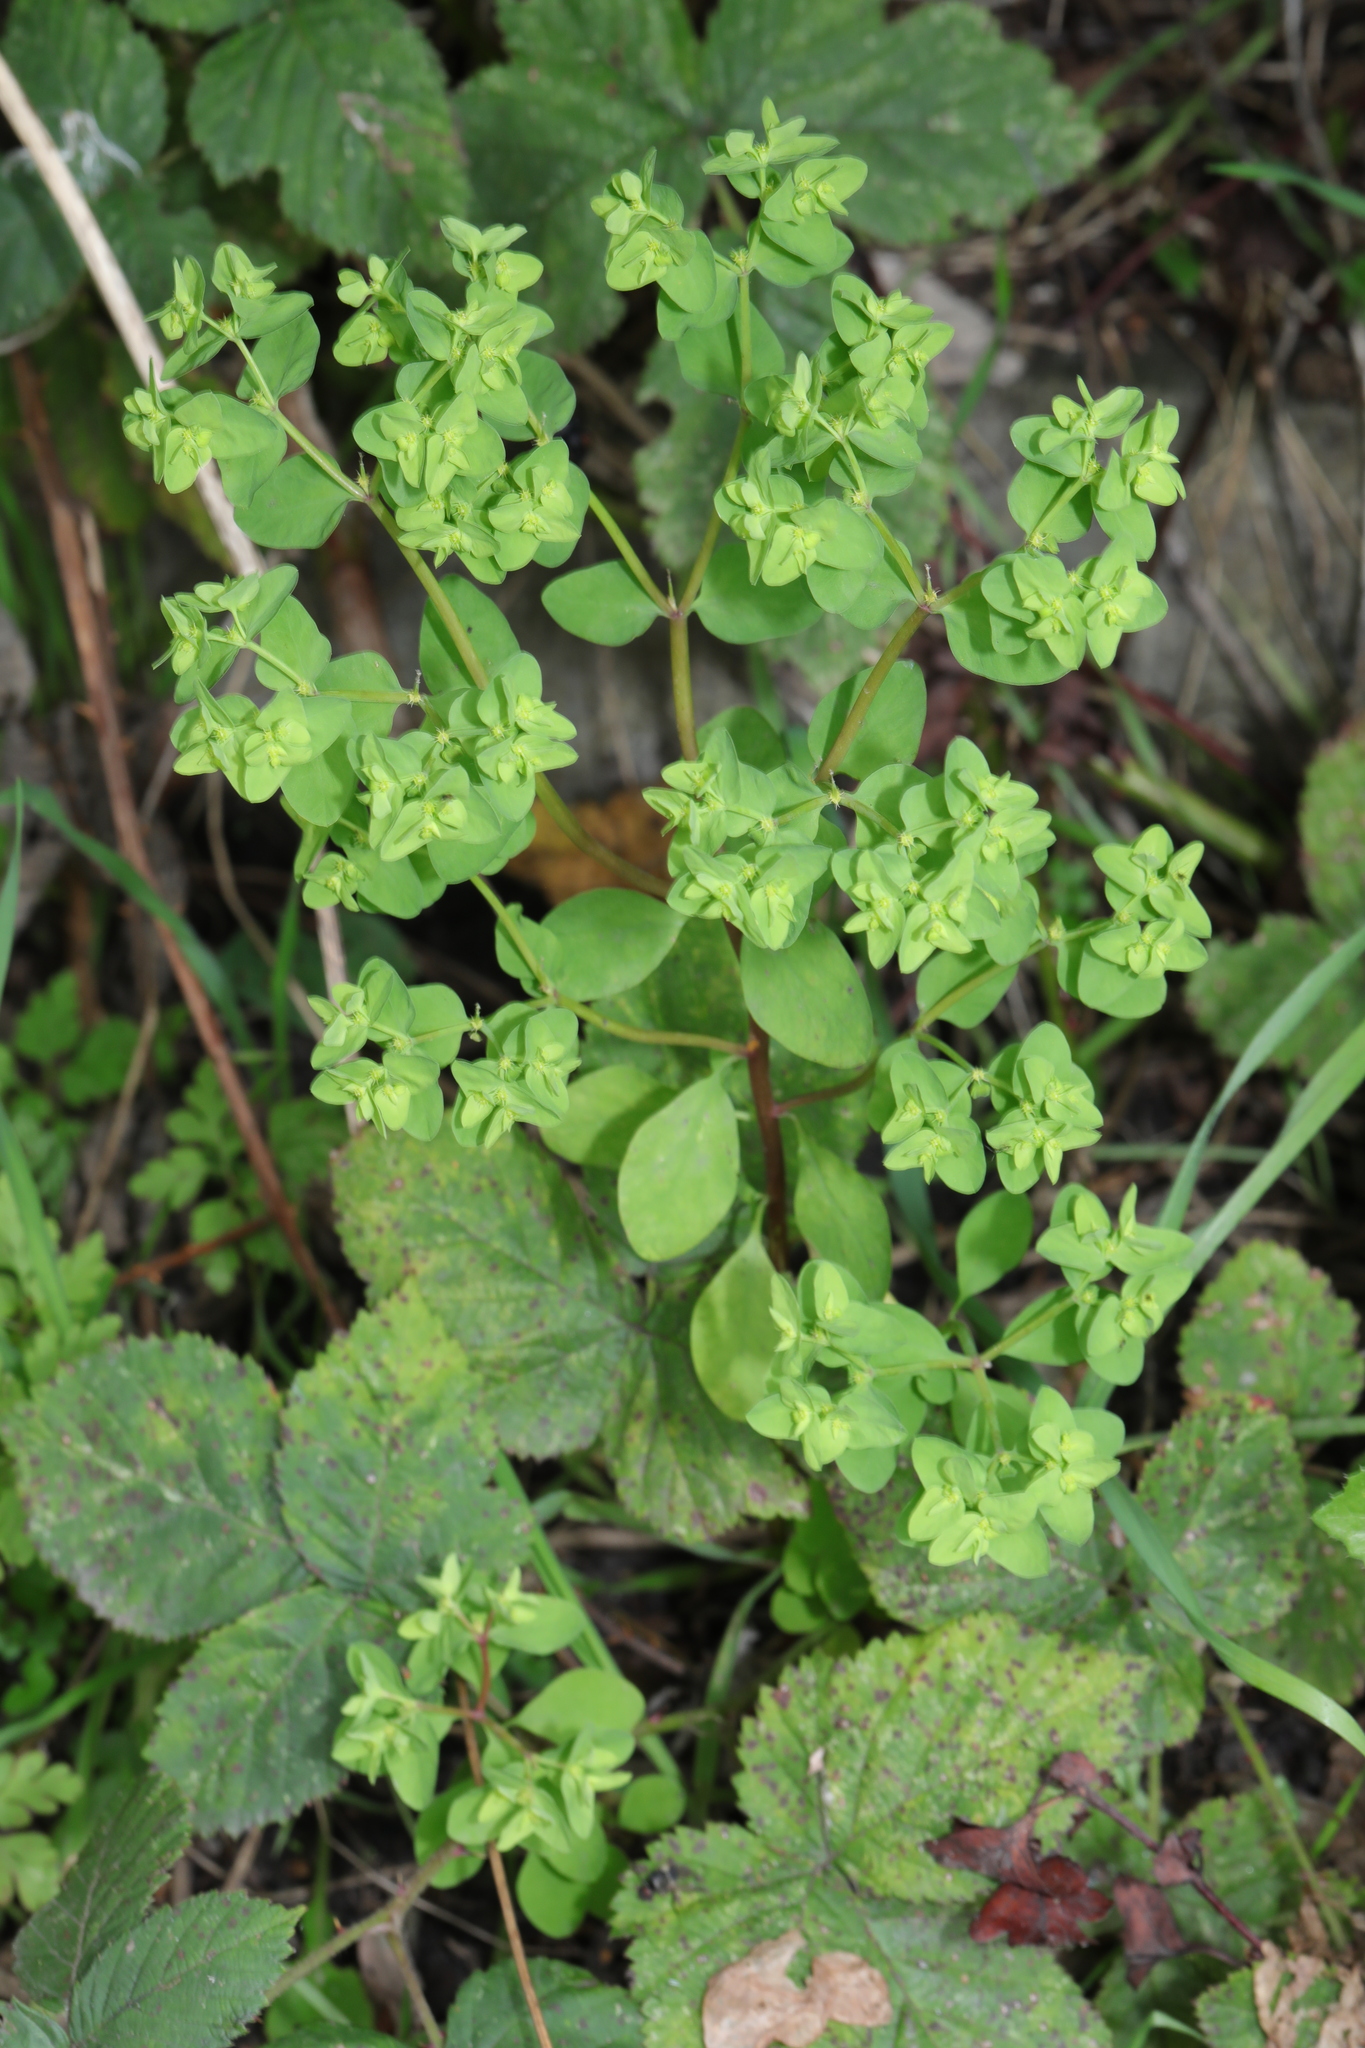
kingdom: Plantae
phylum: Tracheophyta
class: Magnoliopsida
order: Malpighiales
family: Euphorbiaceae
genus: Euphorbia
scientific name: Euphorbia peplus
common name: Petty spurge
